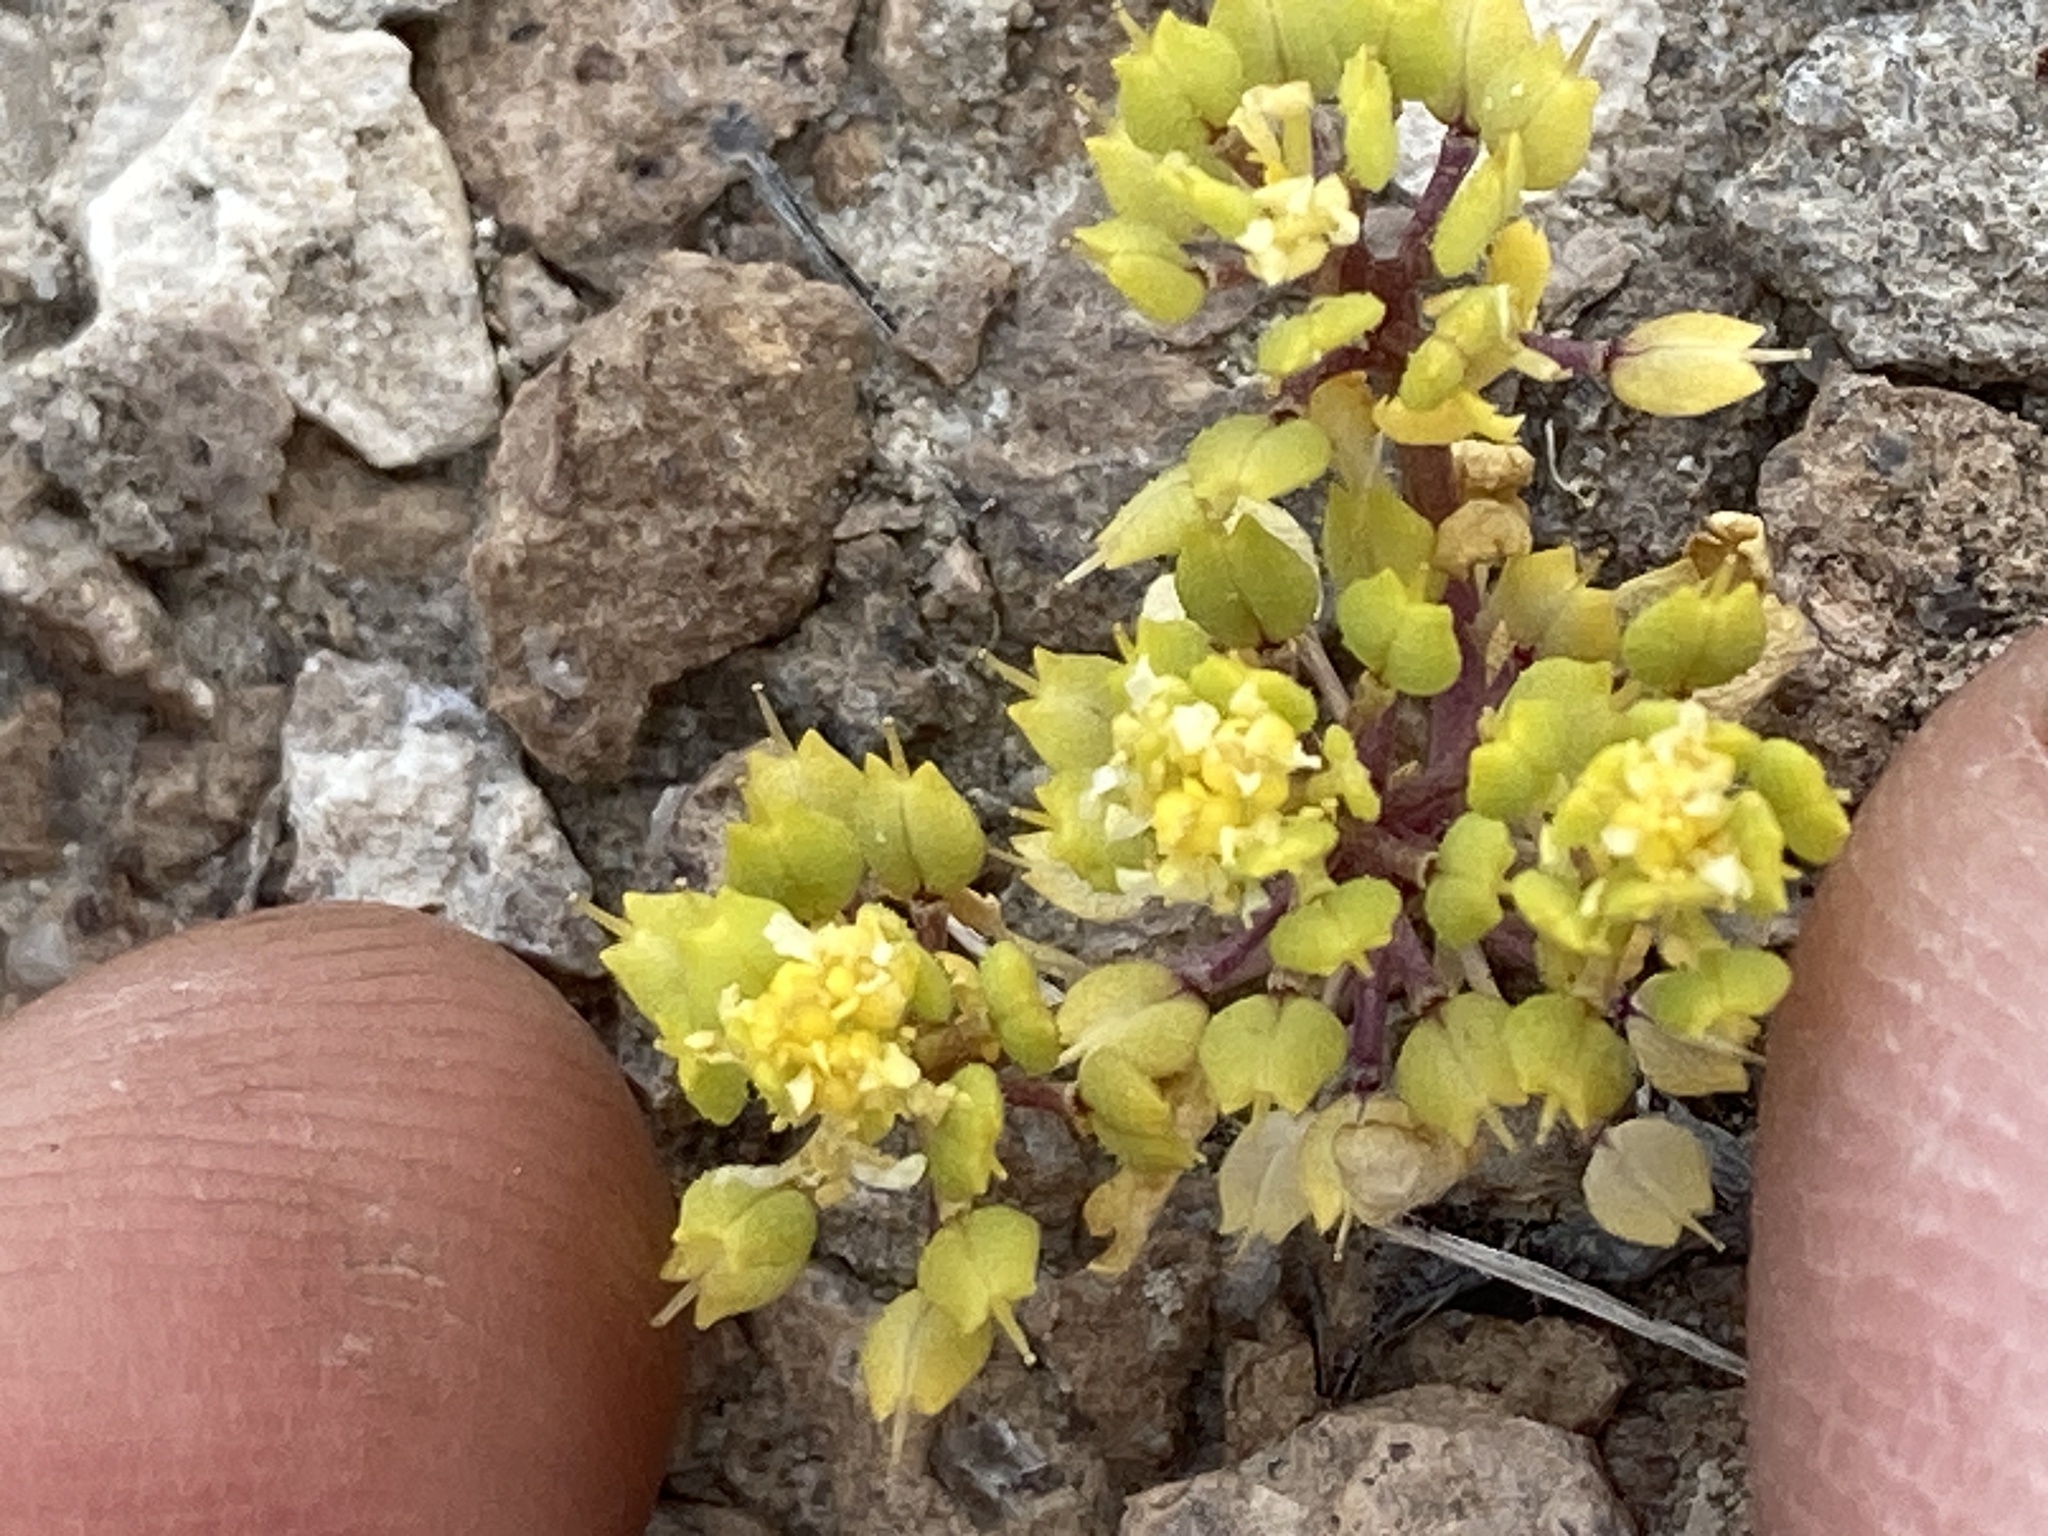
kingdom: Plantae
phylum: Tracheophyta
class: Magnoliopsida
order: Brassicales
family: Brassicaceae
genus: Lepidium
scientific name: Lepidium flavum
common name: Yellow pepperwort
